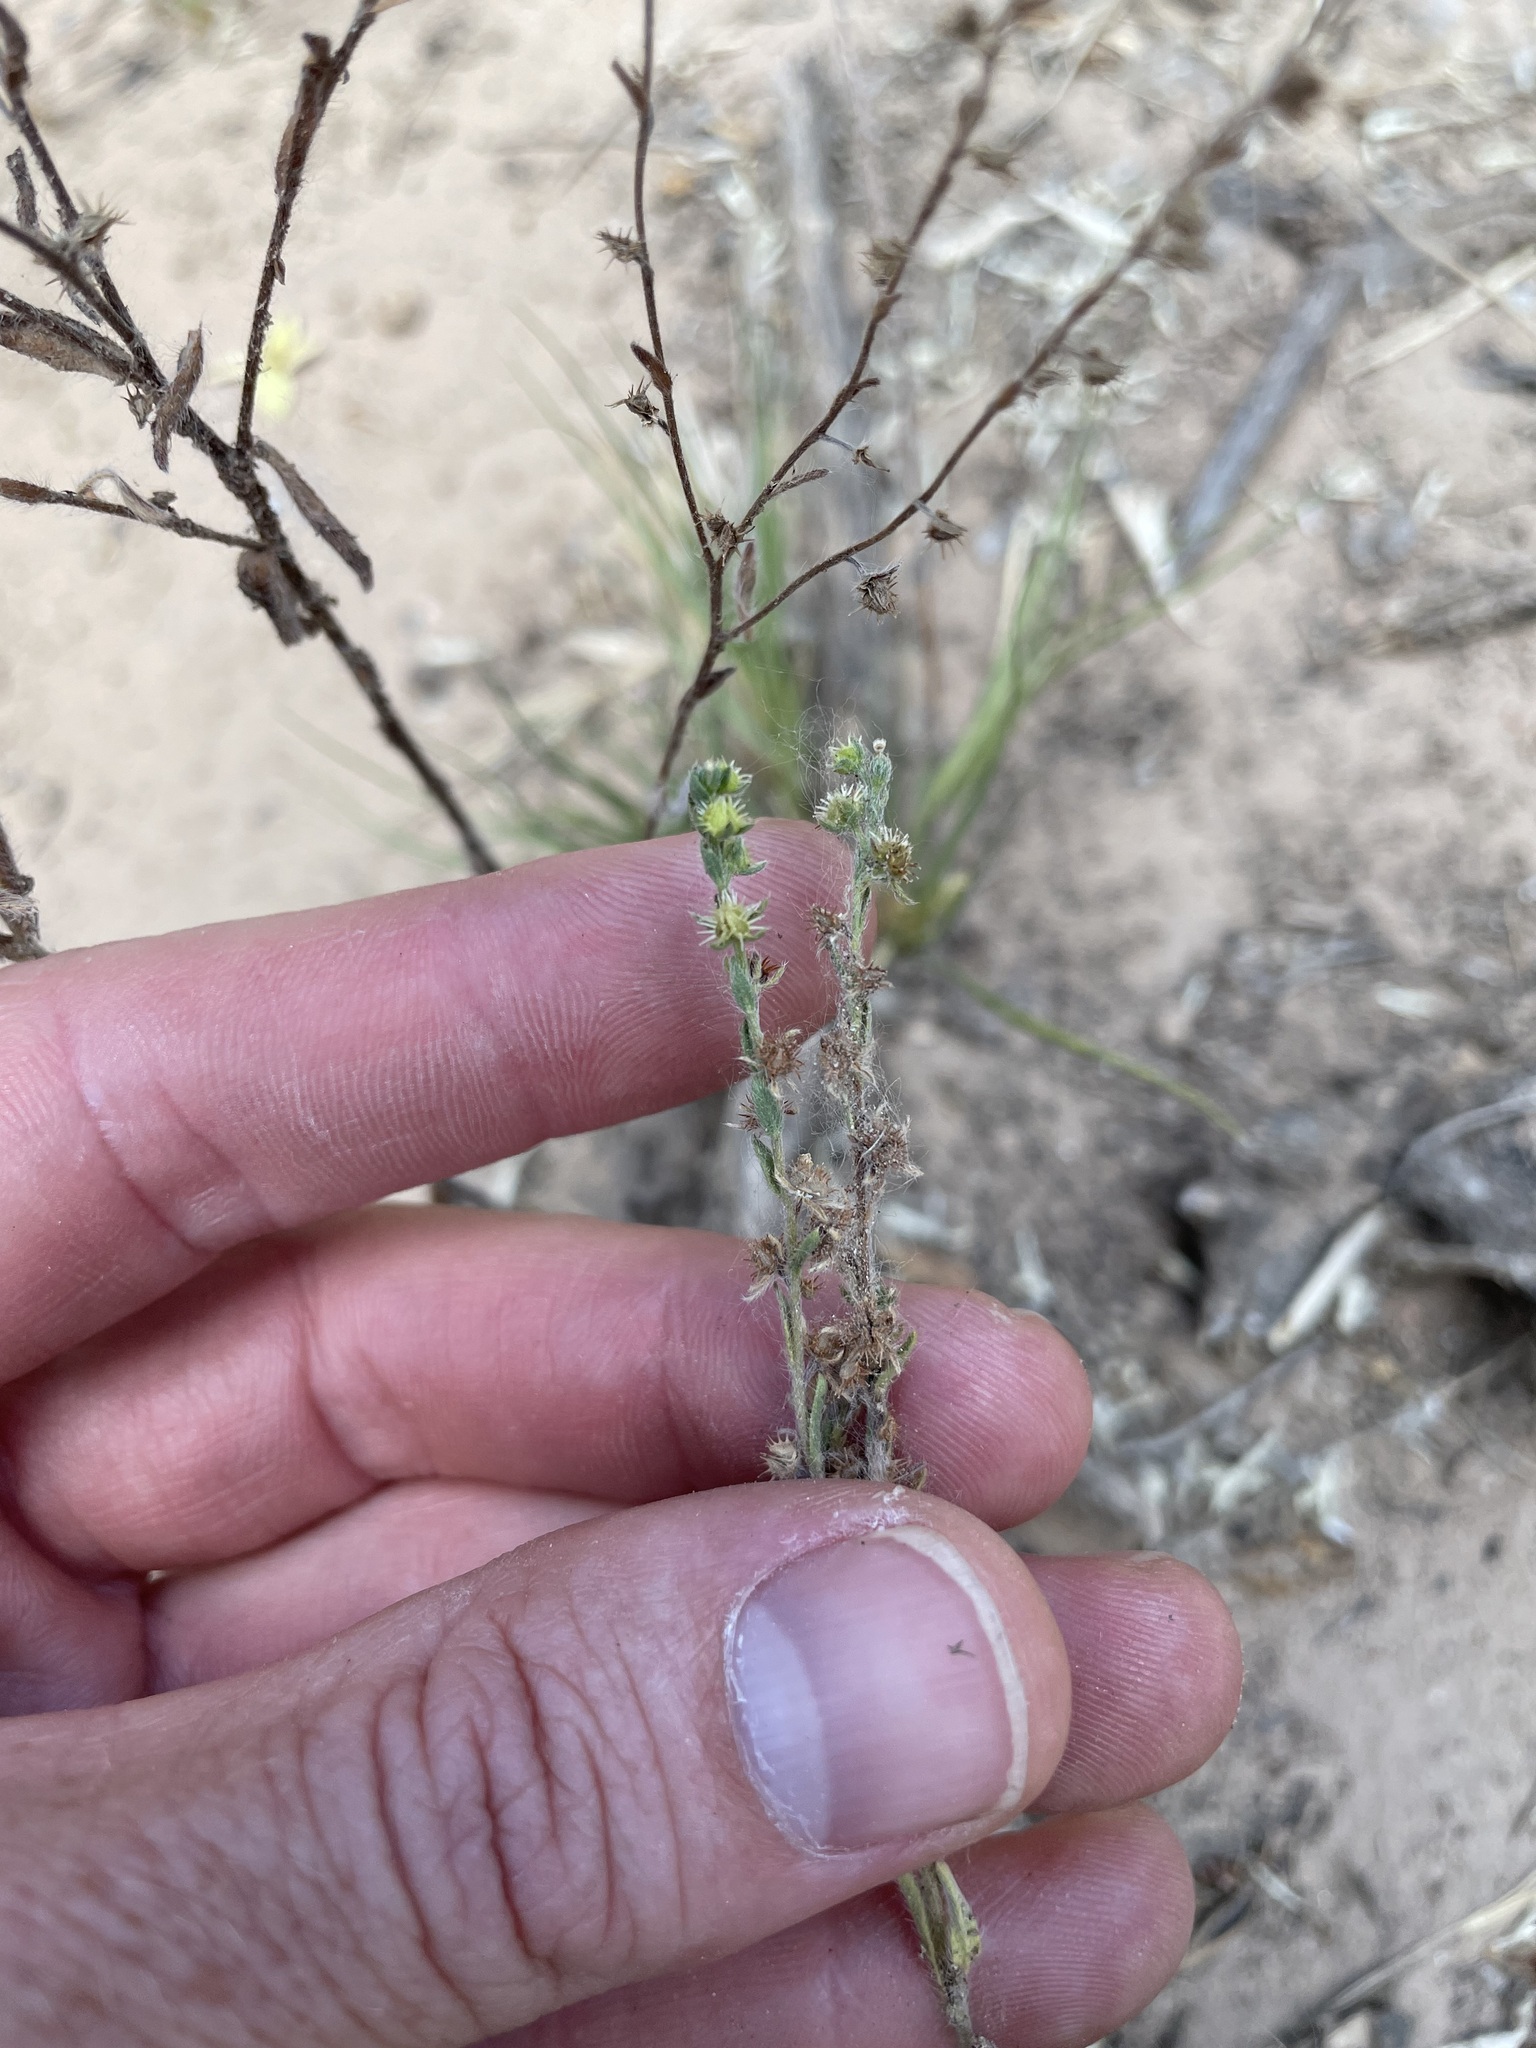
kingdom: Plantae
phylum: Tracheophyta
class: Magnoliopsida
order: Boraginales
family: Boraginaceae
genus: Lappula
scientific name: Lappula occidentalis
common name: Western stickseed
